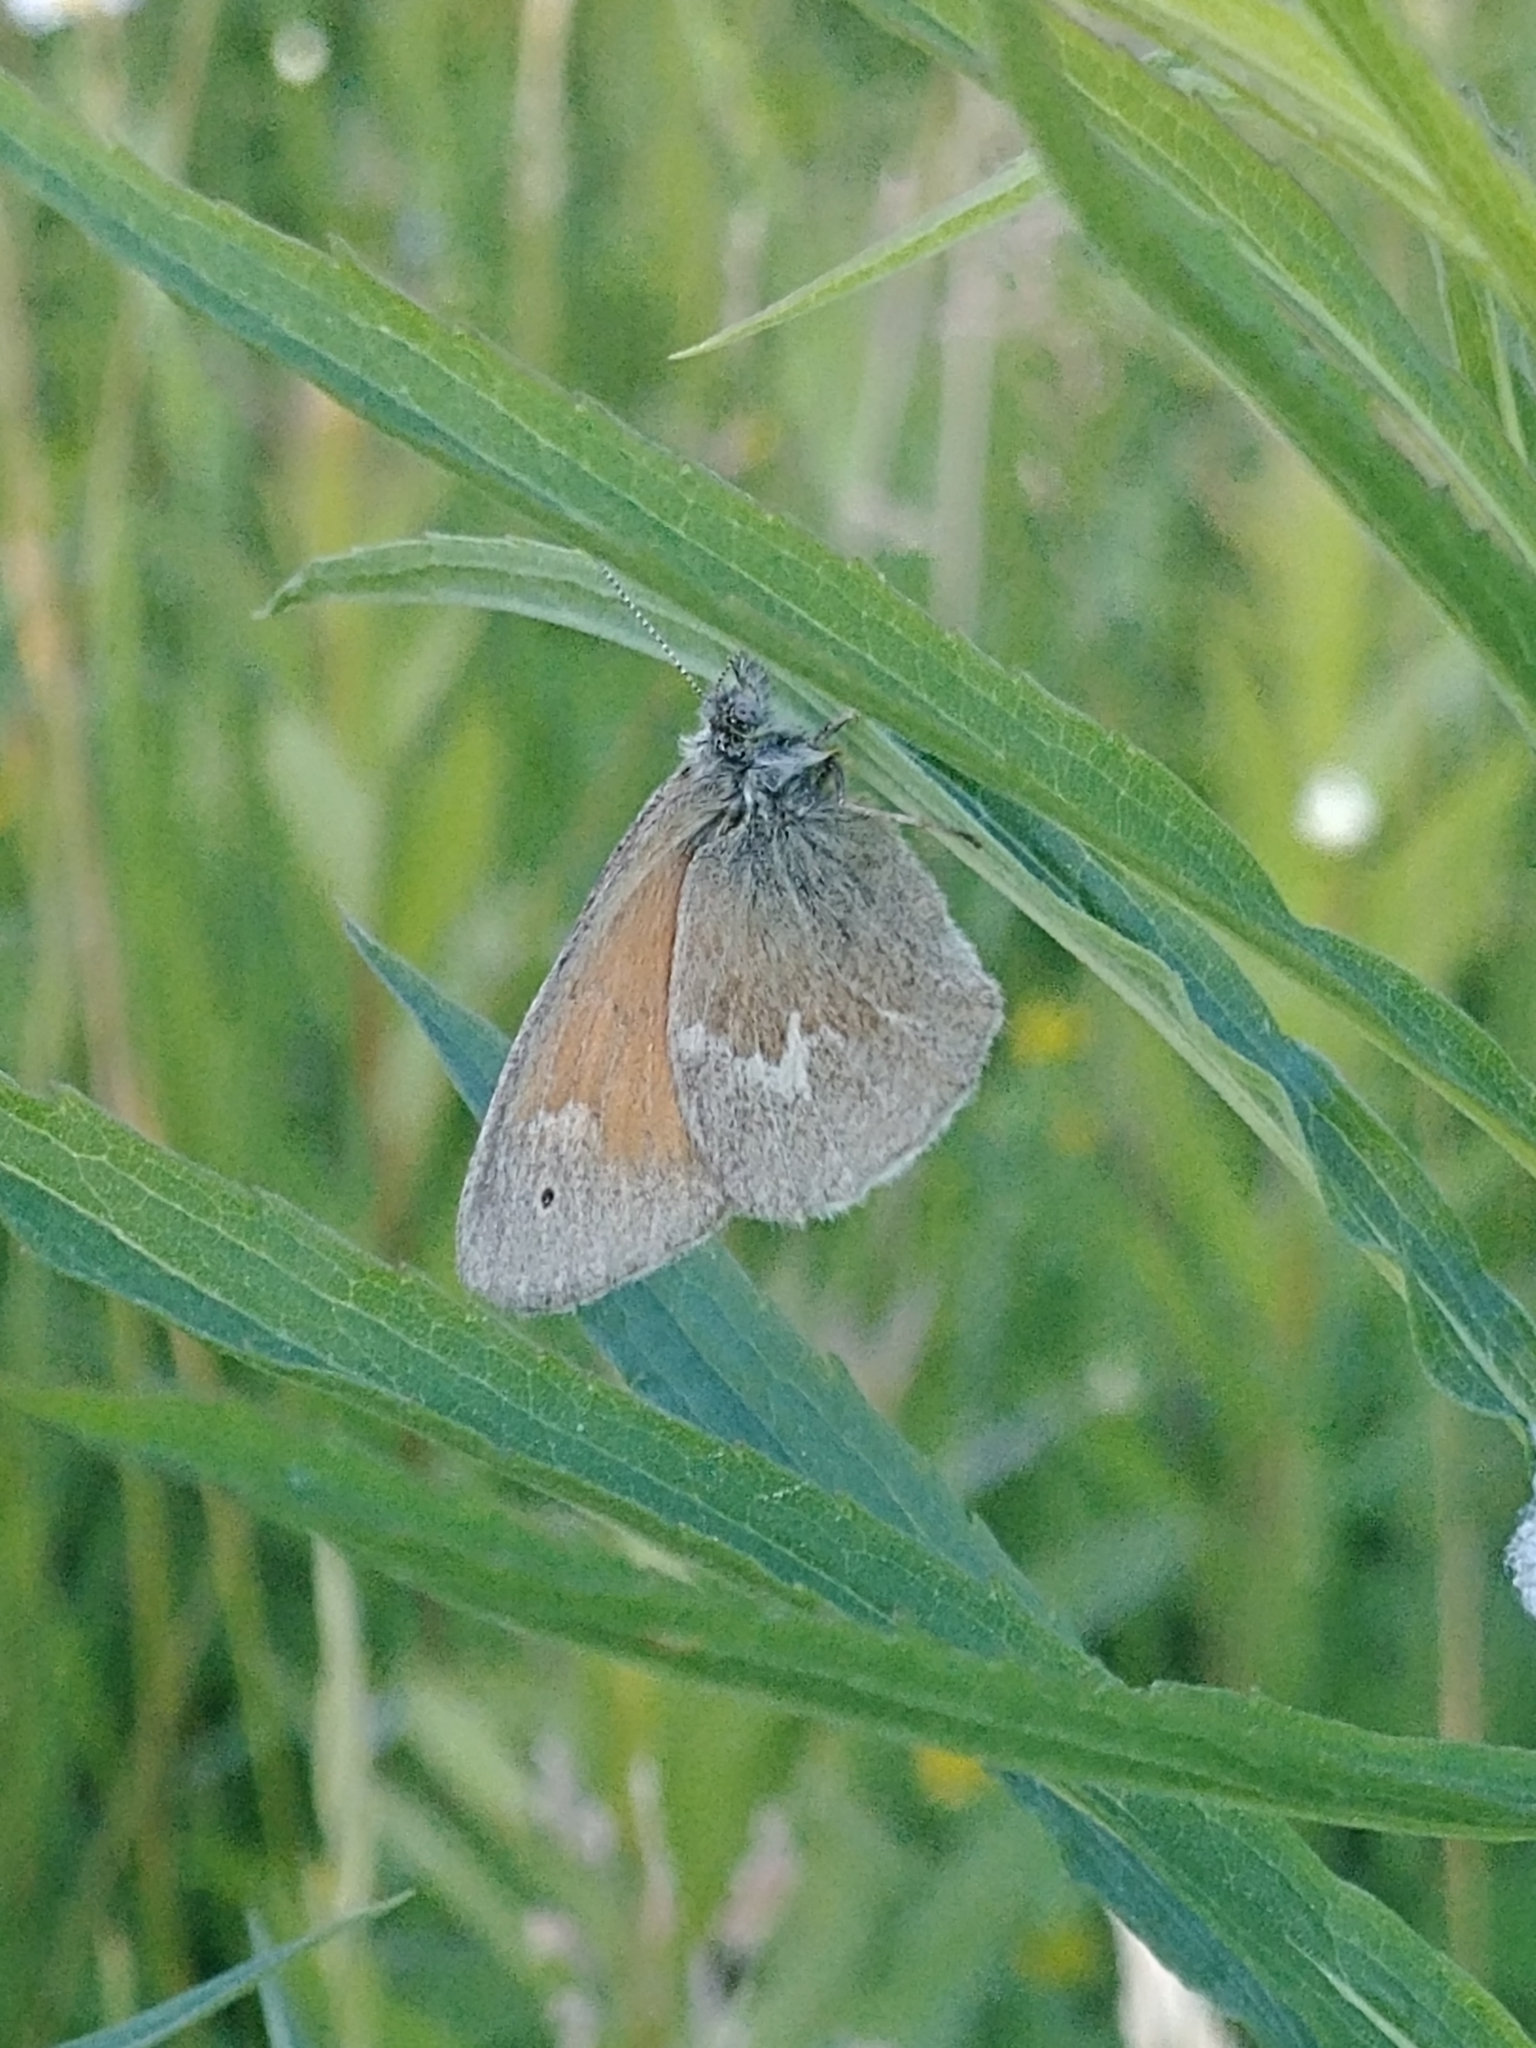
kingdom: Animalia
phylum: Arthropoda
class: Insecta
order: Lepidoptera
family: Nymphalidae
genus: Coenonympha
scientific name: Coenonympha california
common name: Common ringlet
